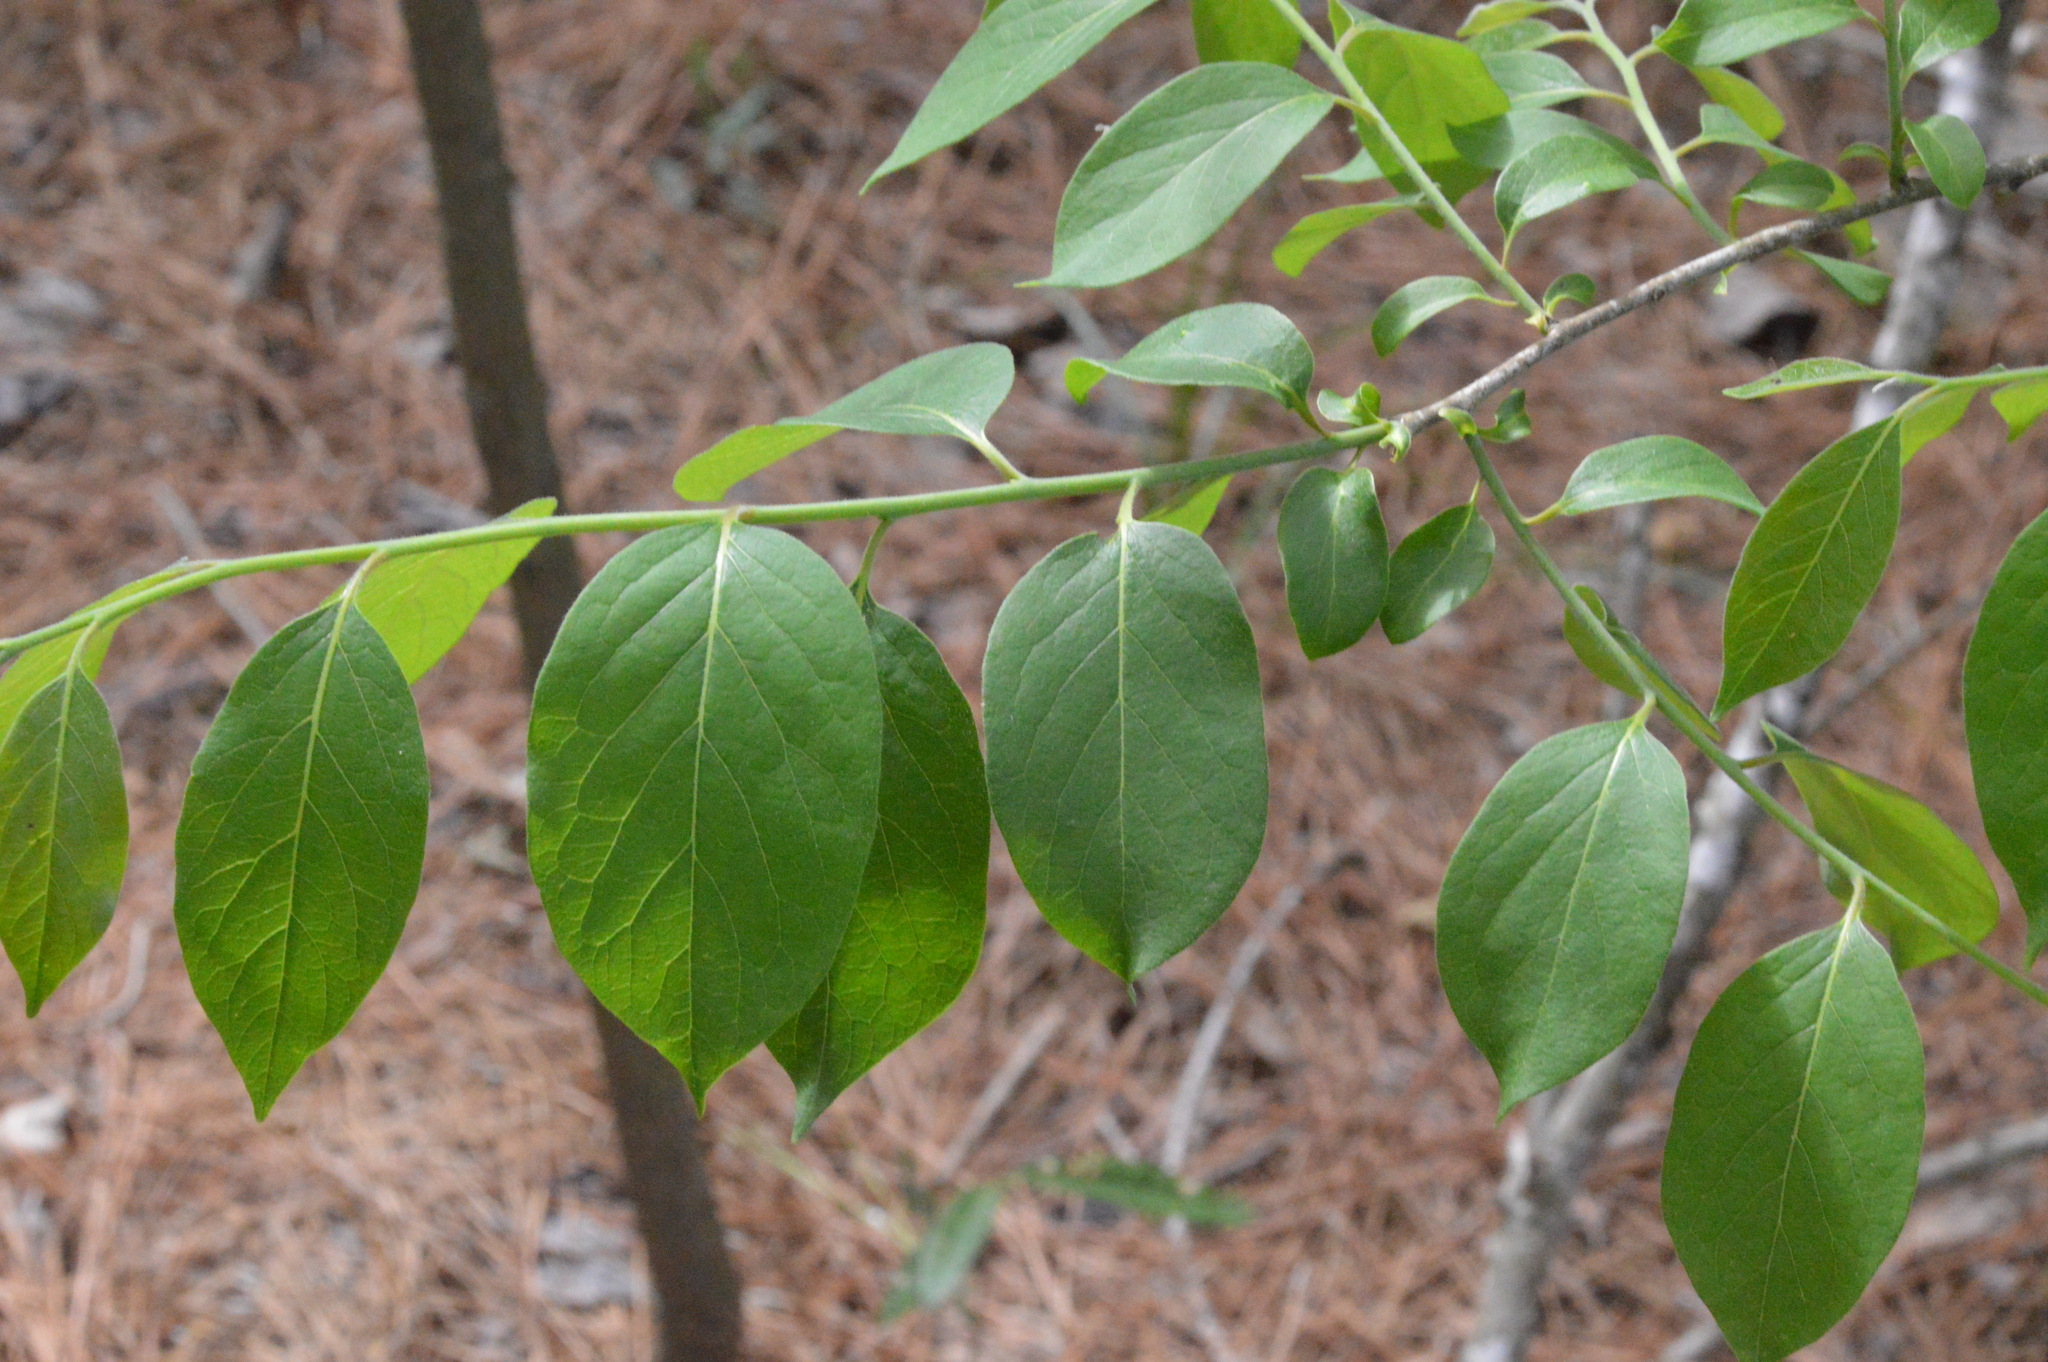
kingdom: Plantae
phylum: Tracheophyta
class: Magnoliopsida
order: Ericales
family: Ebenaceae
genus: Diospyros
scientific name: Diospyros virginiana
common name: Persimmon
